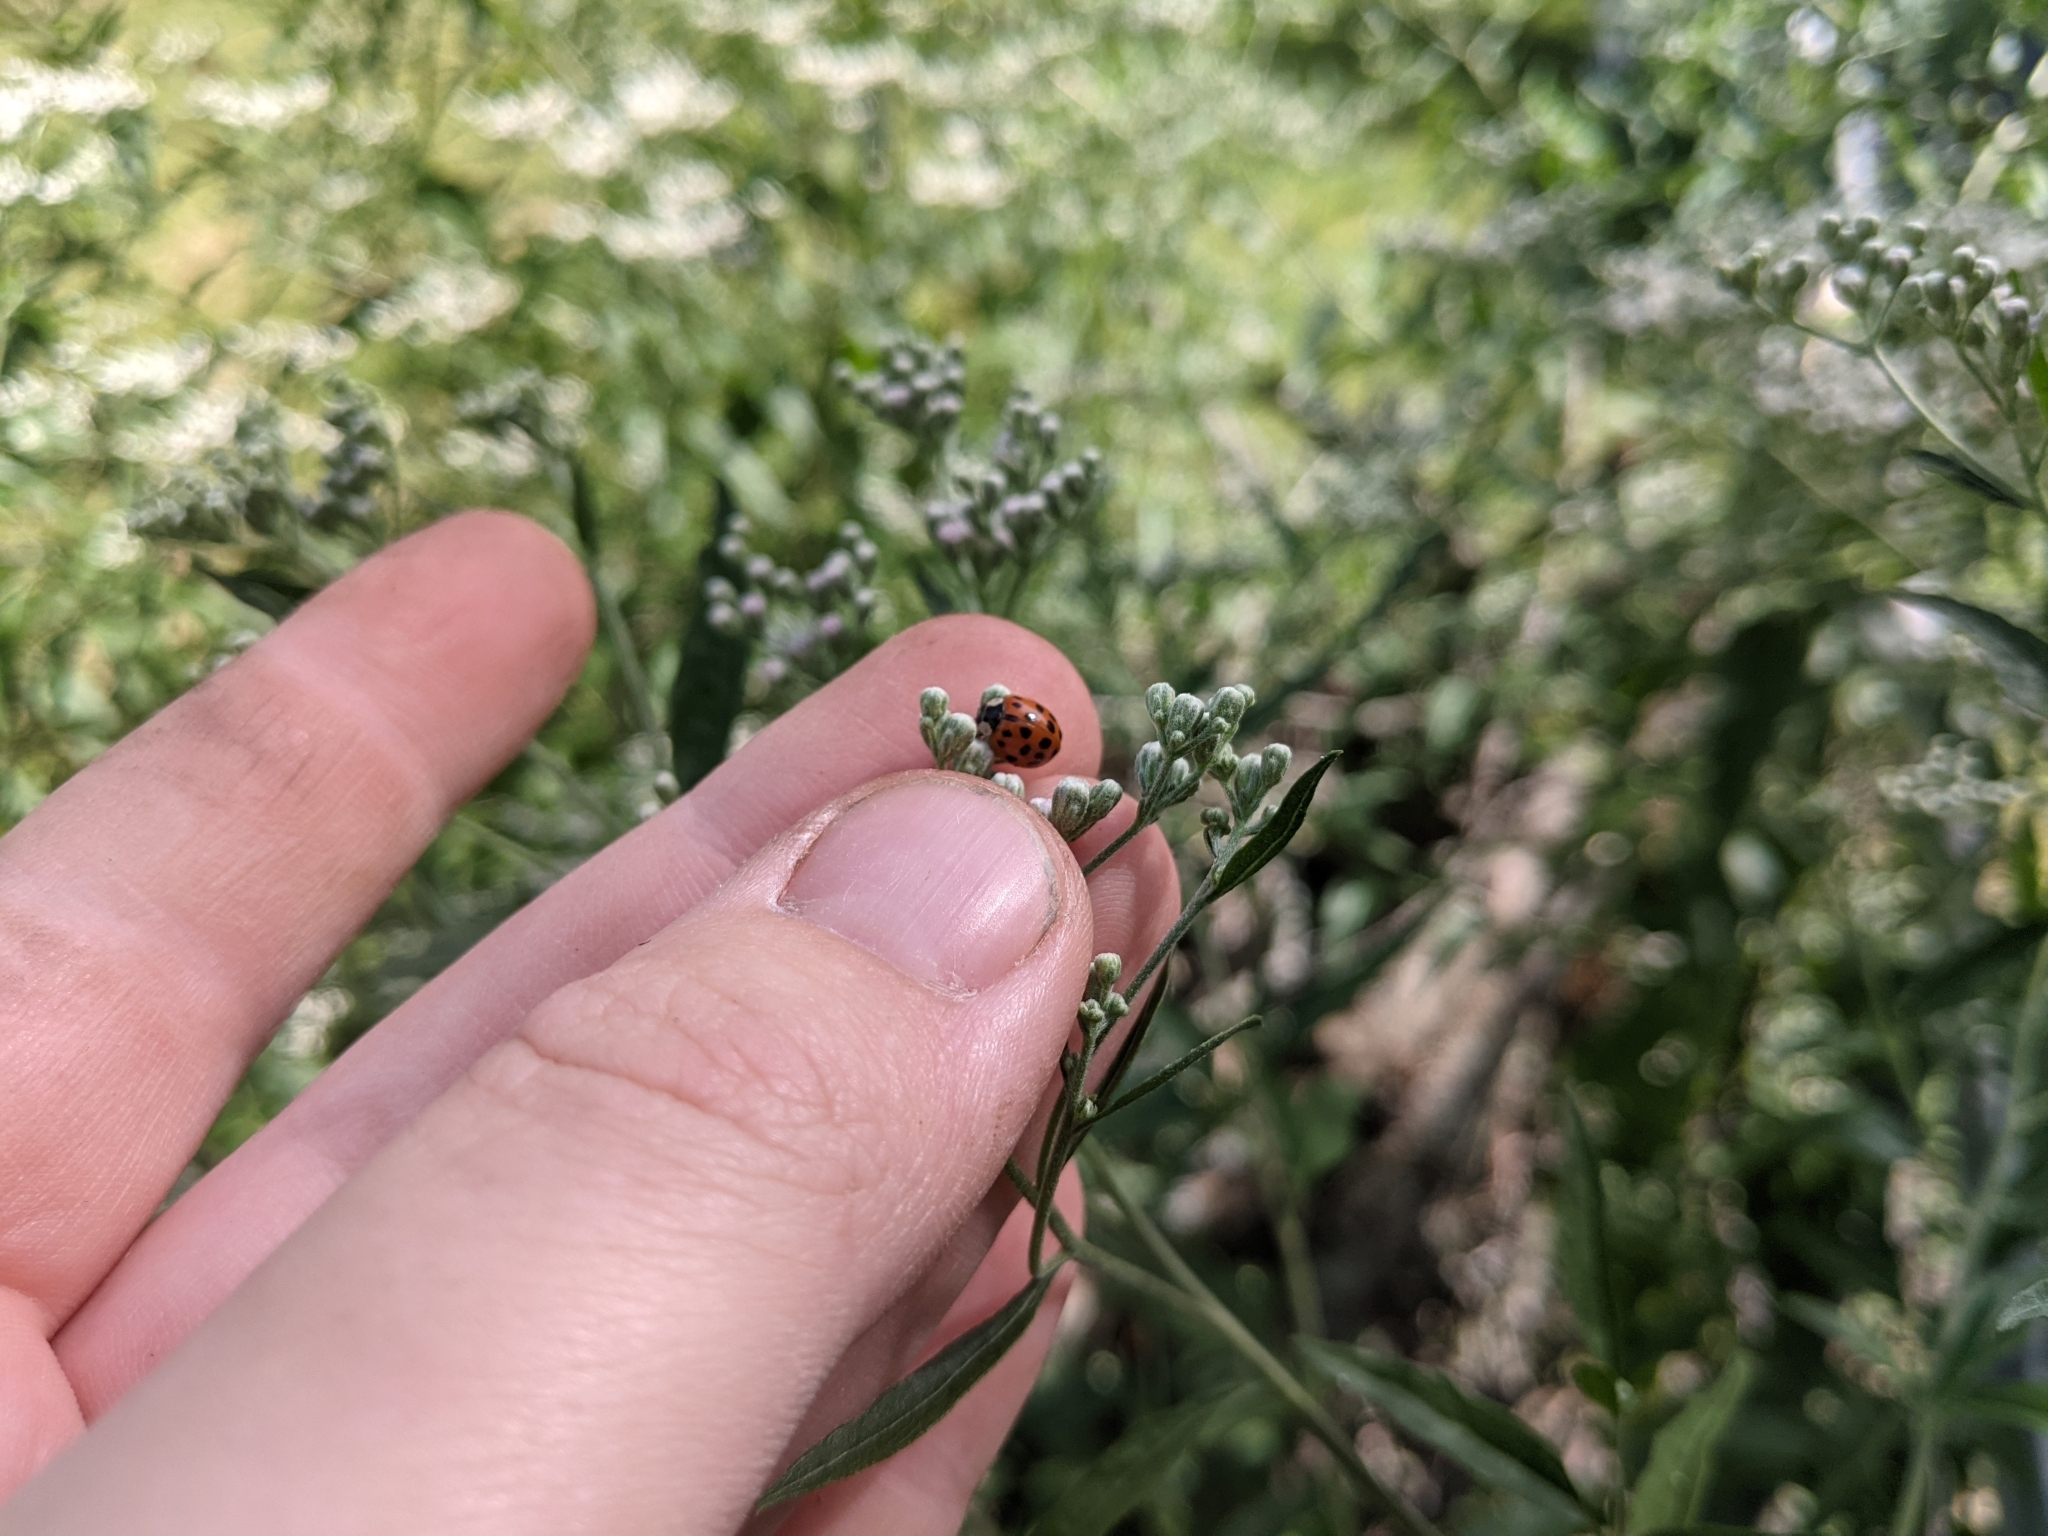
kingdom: Animalia
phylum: Arthropoda
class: Insecta
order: Coleoptera
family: Coccinellidae
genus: Harmonia
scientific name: Harmonia axyridis
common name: Harlequin ladybird
